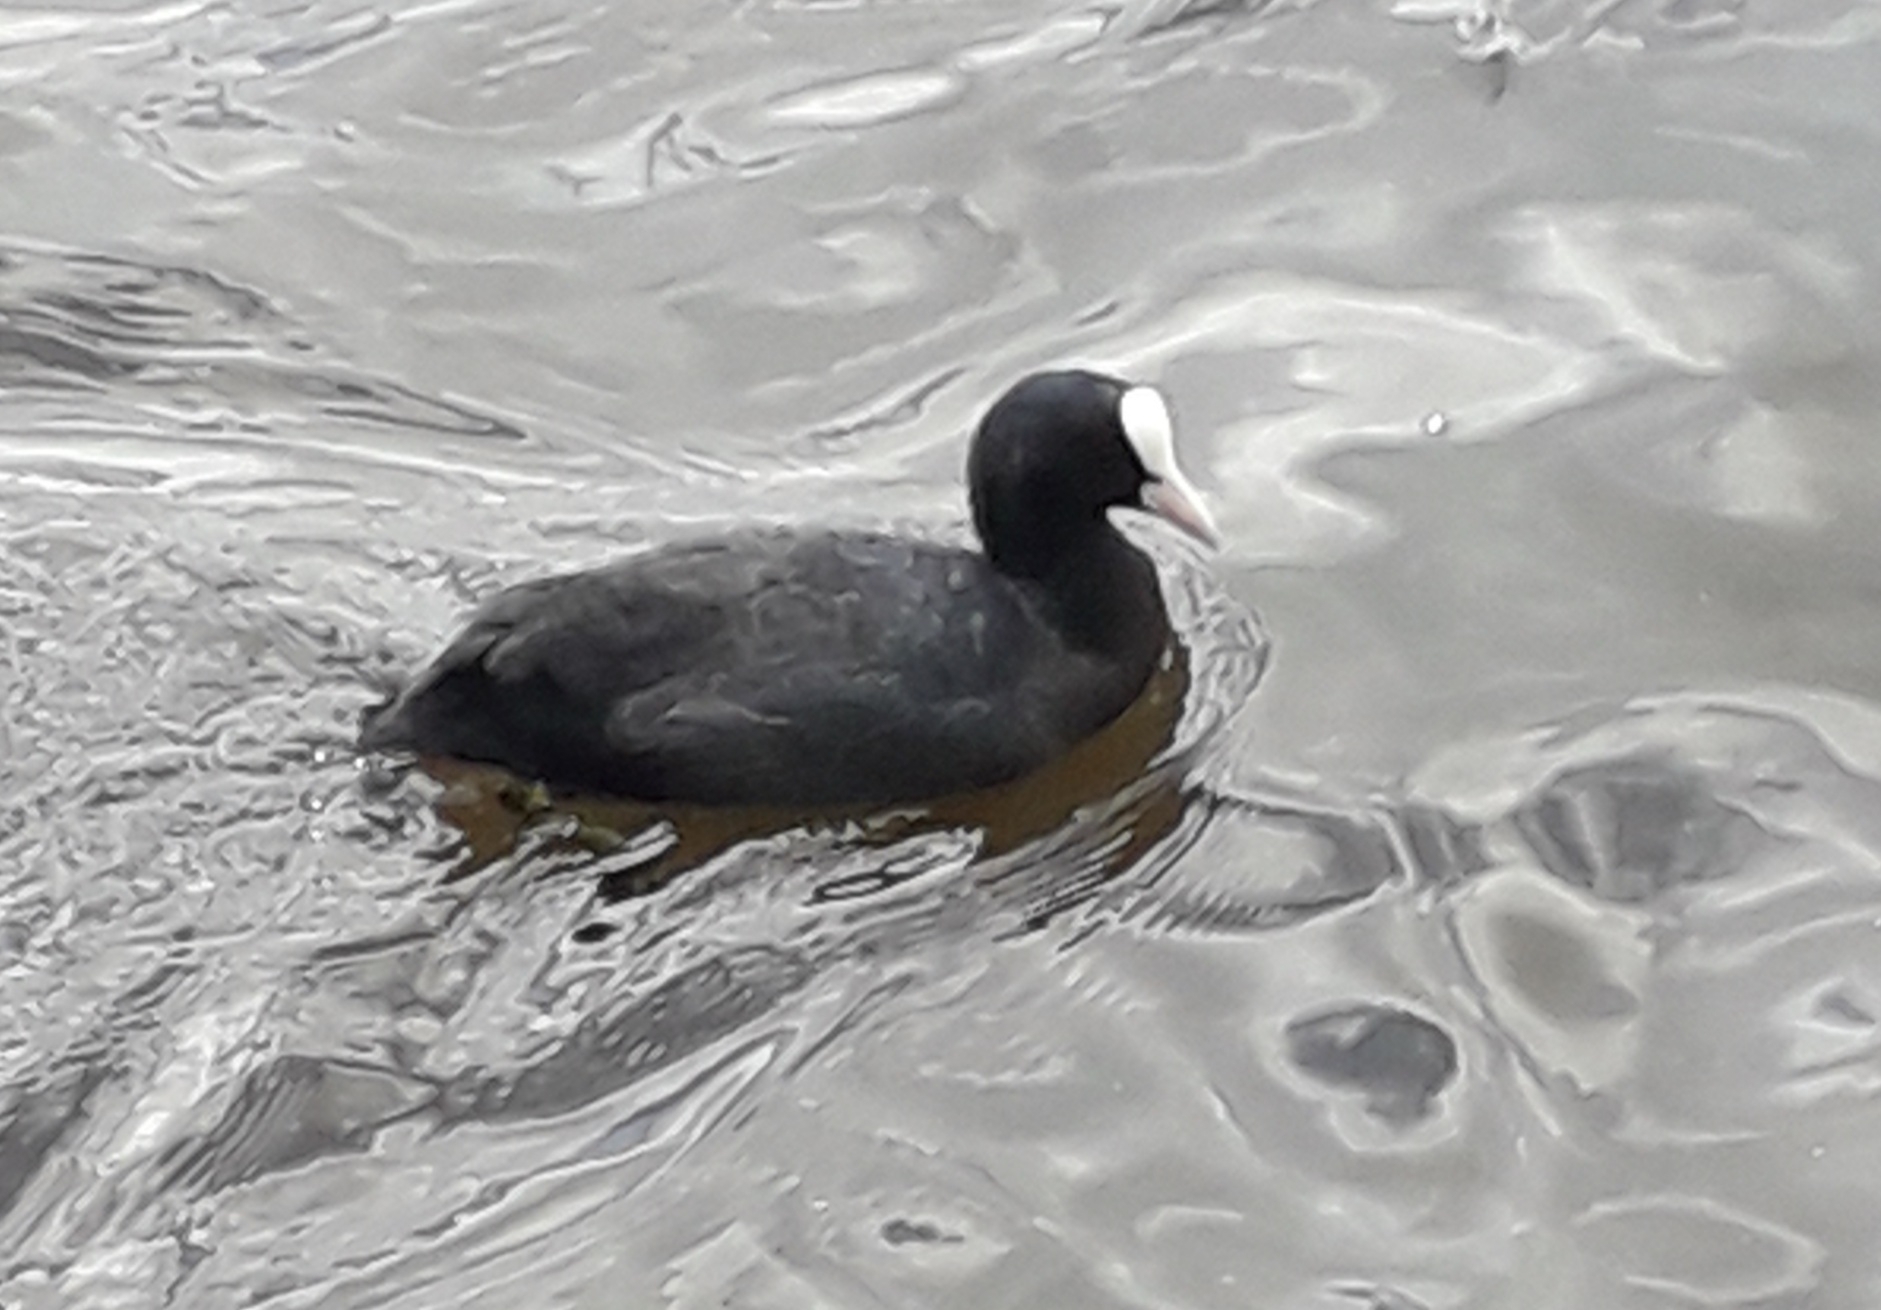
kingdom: Animalia
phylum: Chordata
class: Aves
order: Gruiformes
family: Rallidae
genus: Fulica
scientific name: Fulica atra
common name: Eurasian coot
